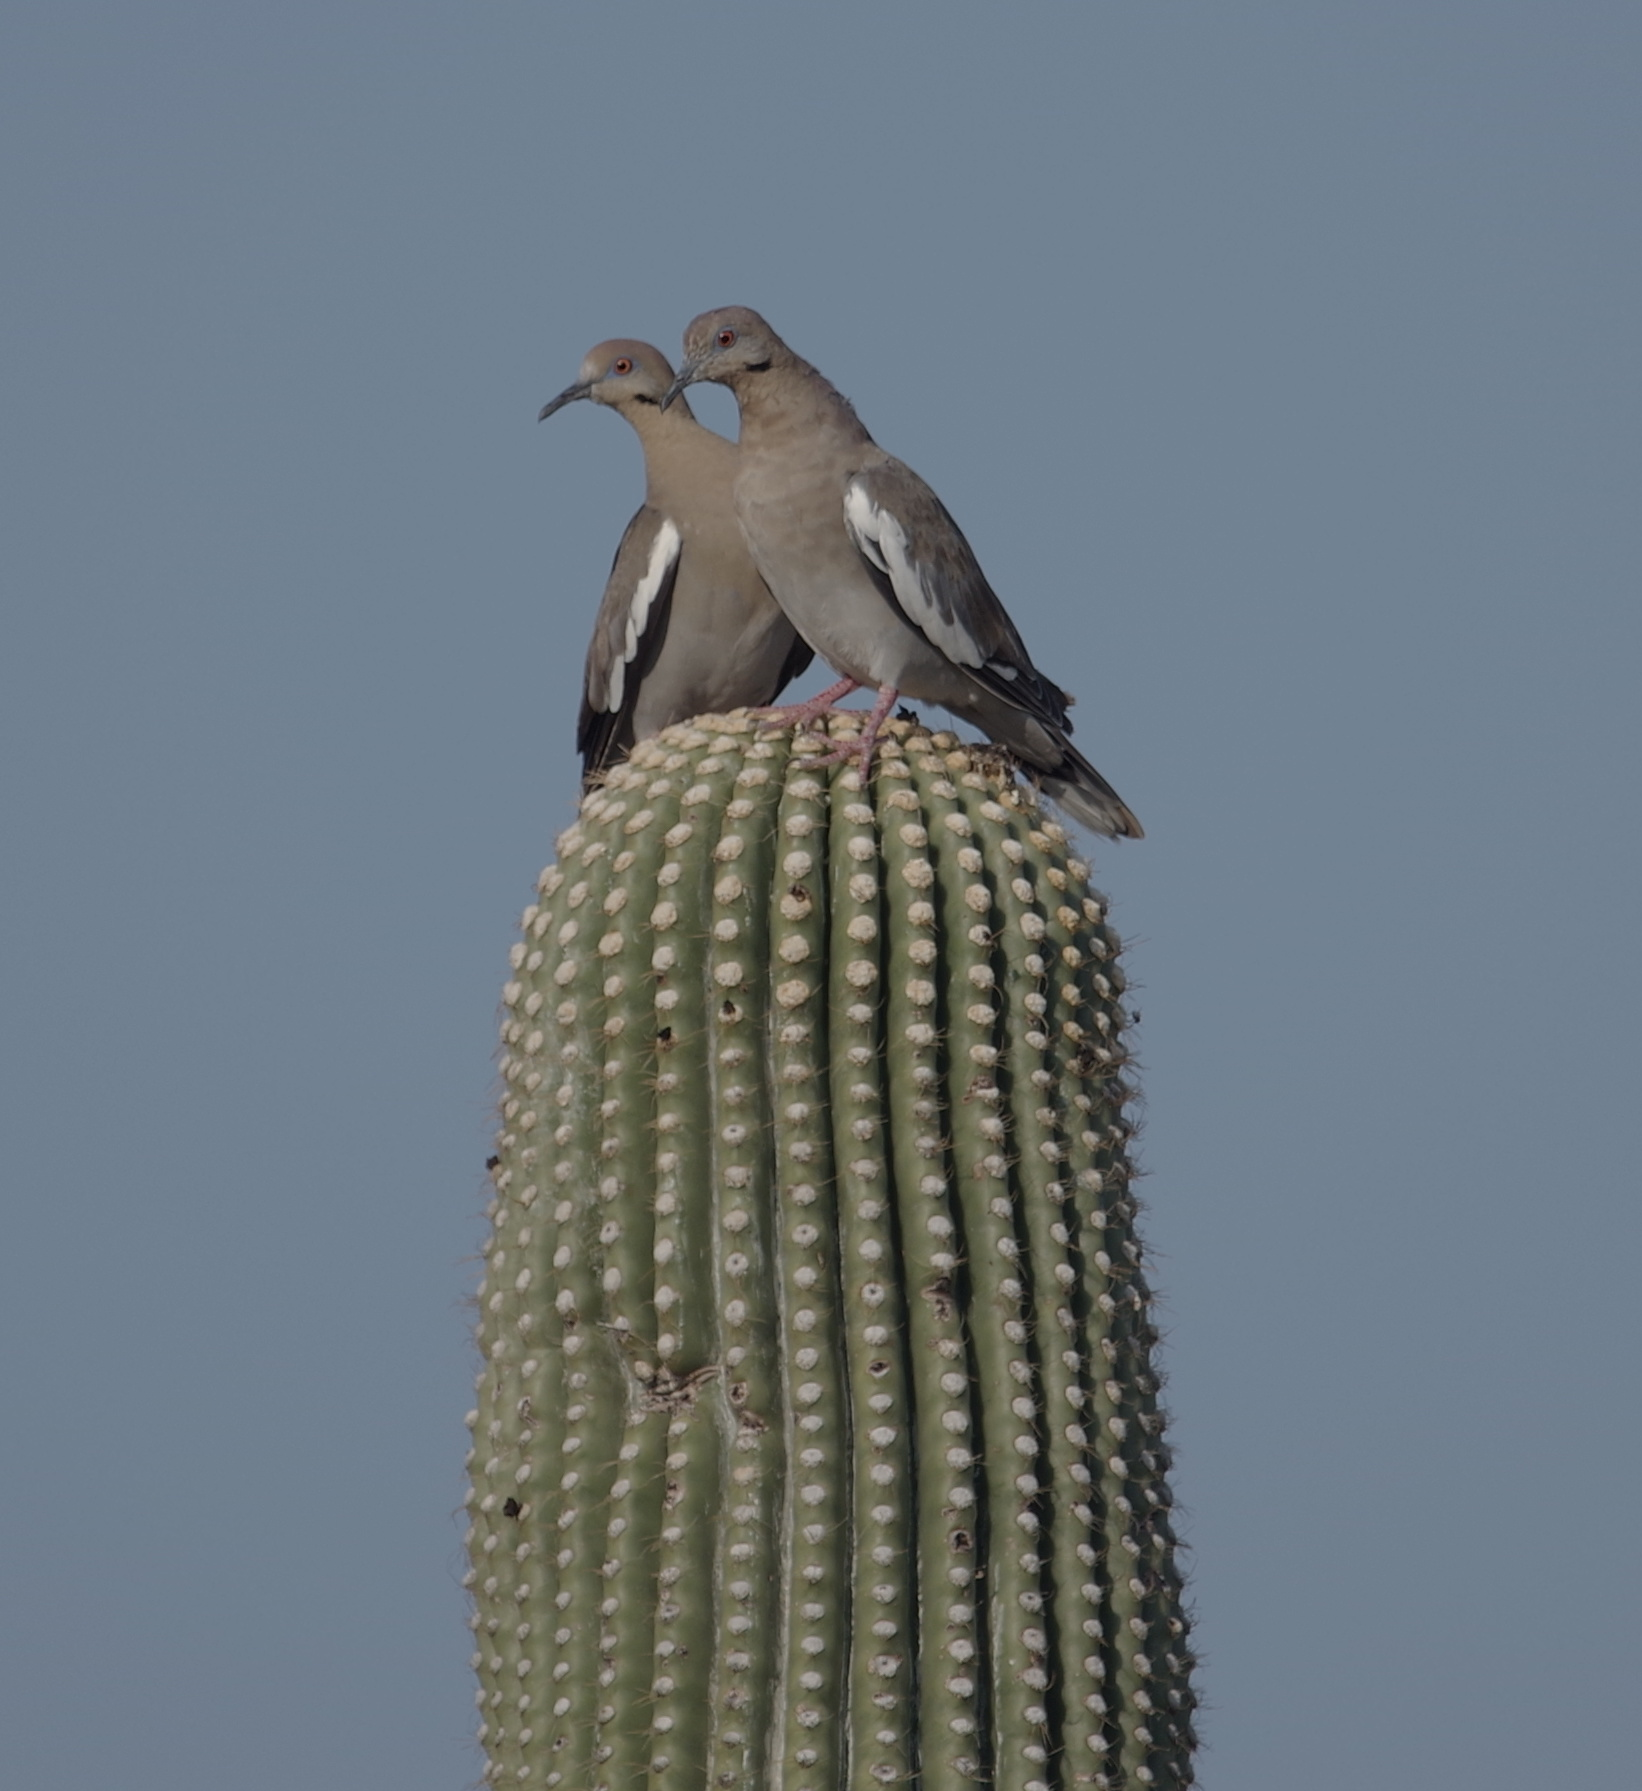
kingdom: Animalia
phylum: Chordata
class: Aves
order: Columbiformes
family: Columbidae
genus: Zenaida
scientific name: Zenaida asiatica
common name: White-winged dove
